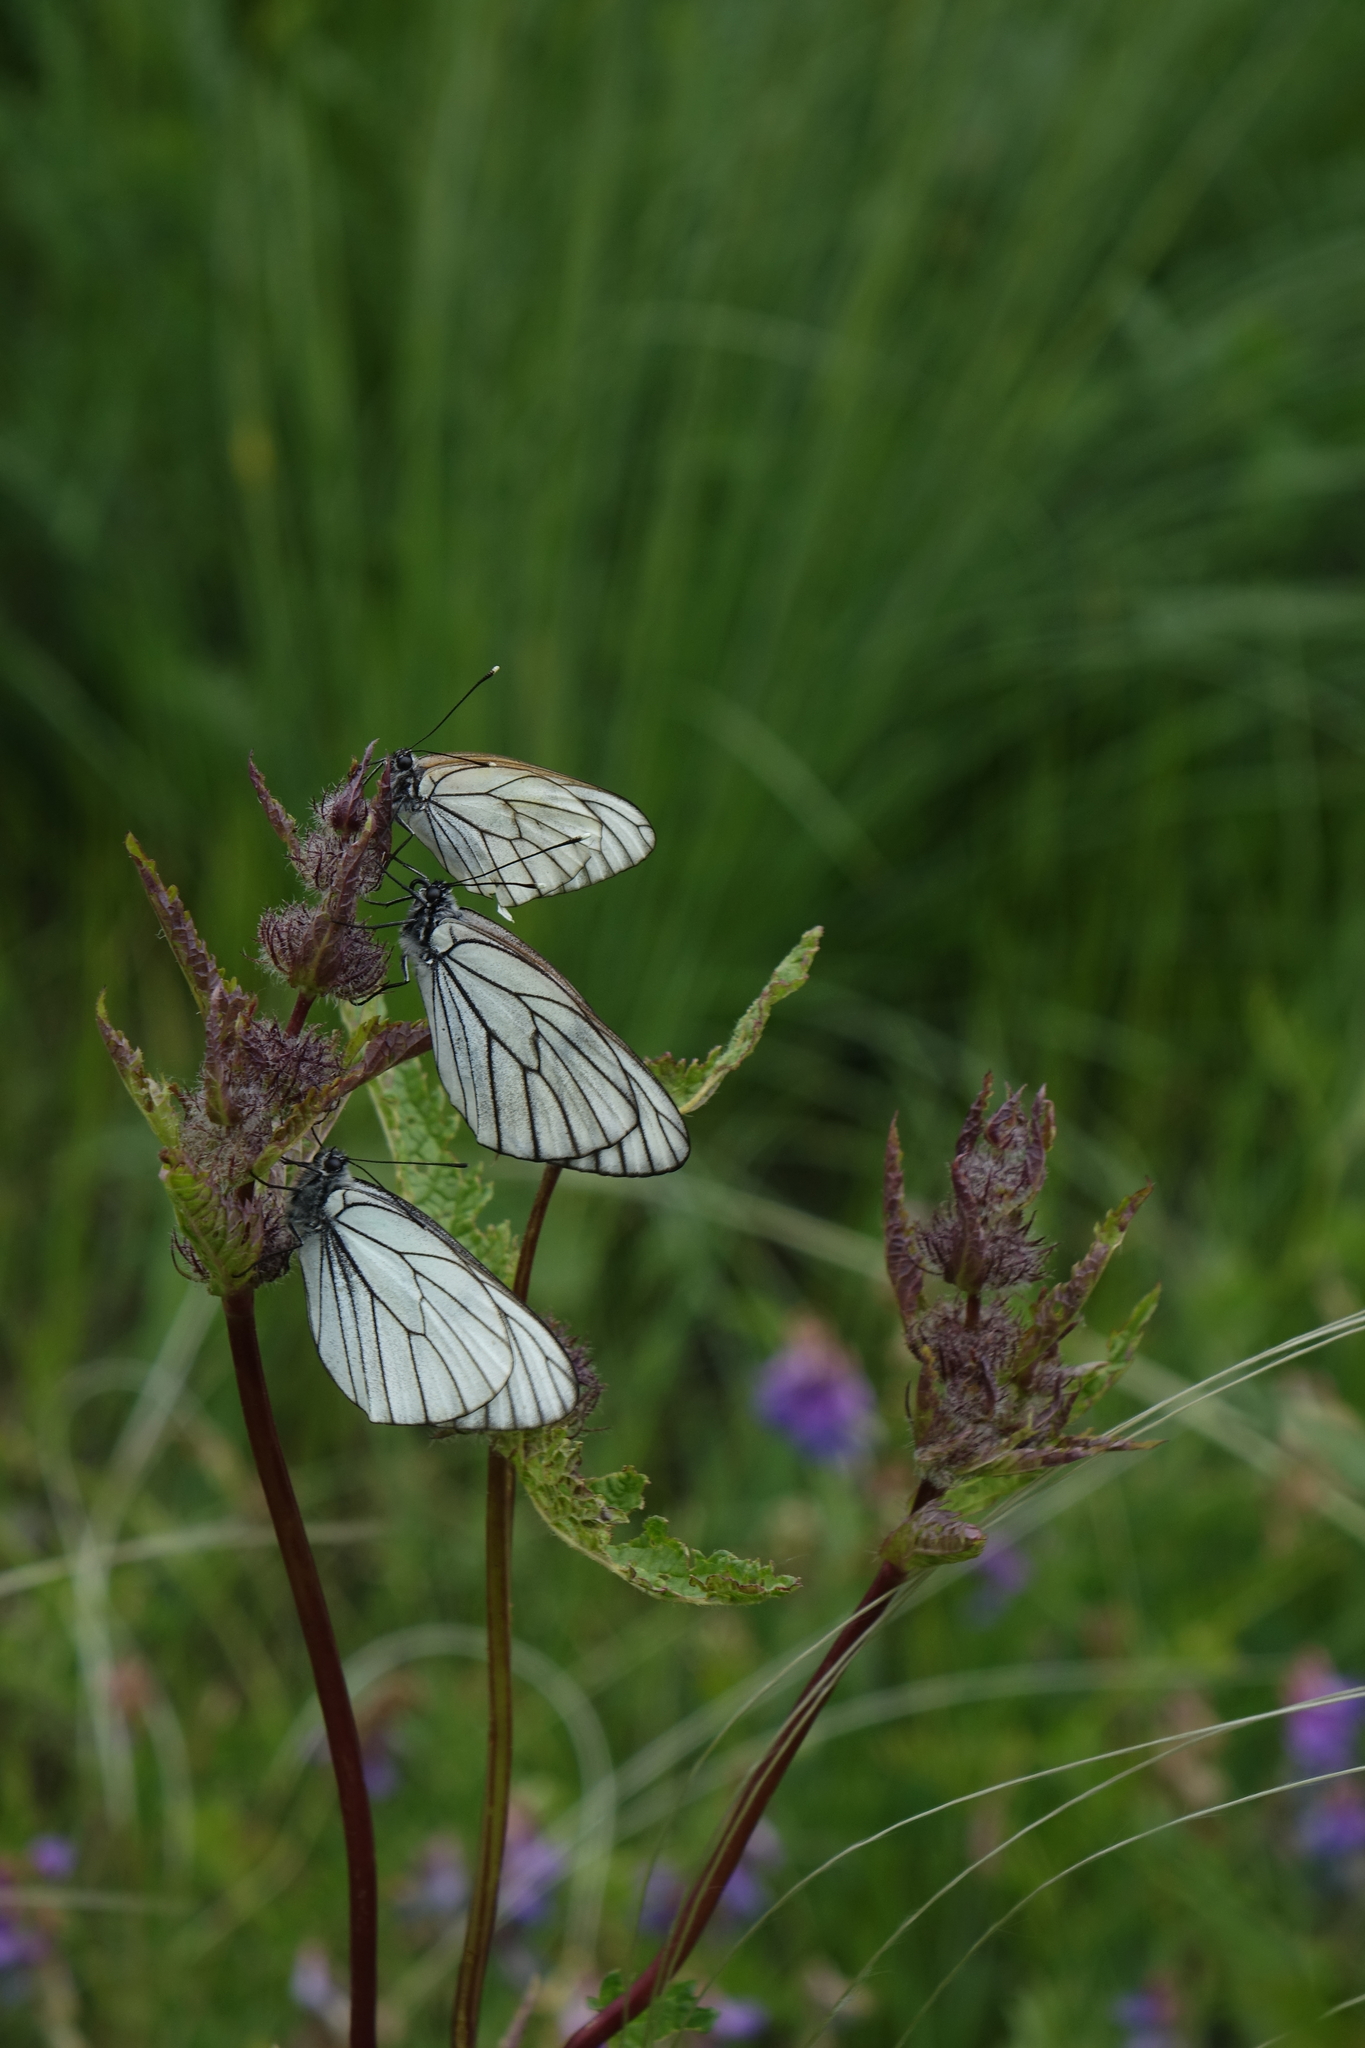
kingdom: Animalia
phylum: Arthropoda
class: Insecta
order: Lepidoptera
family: Pieridae
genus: Aporia
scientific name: Aporia crataegi
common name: Black-veined white
